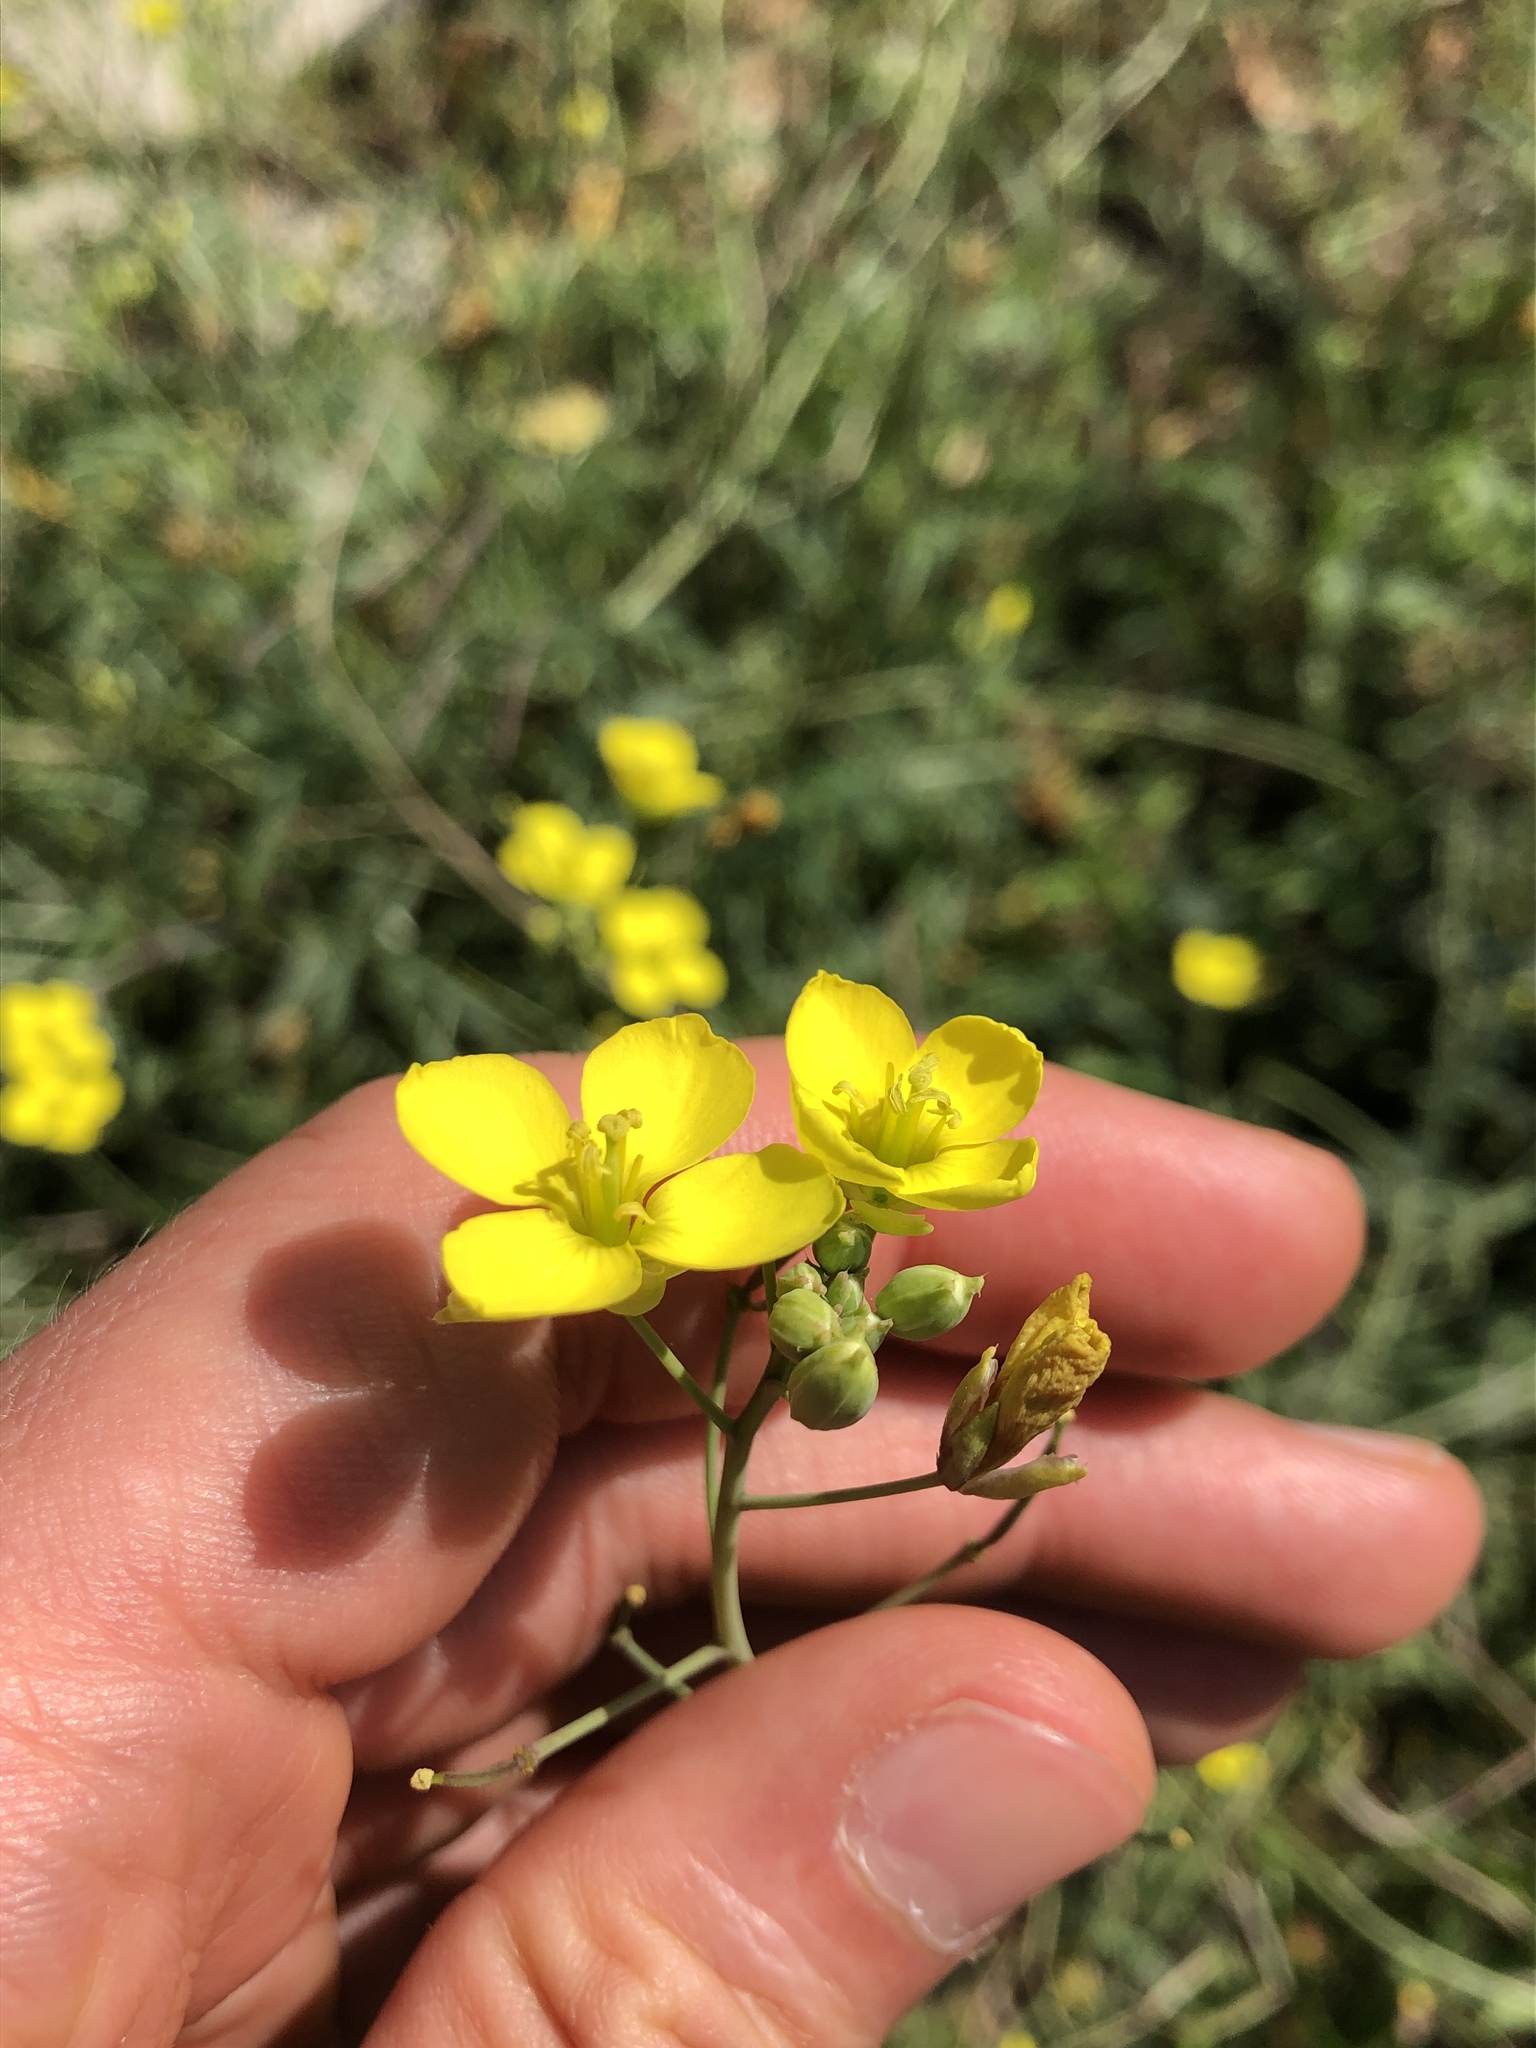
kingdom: Plantae
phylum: Tracheophyta
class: Magnoliopsida
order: Brassicales
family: Brassicaceae
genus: Diplotaxis
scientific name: Diplotaxis tenuifolia
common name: Perennial wall-rocket
